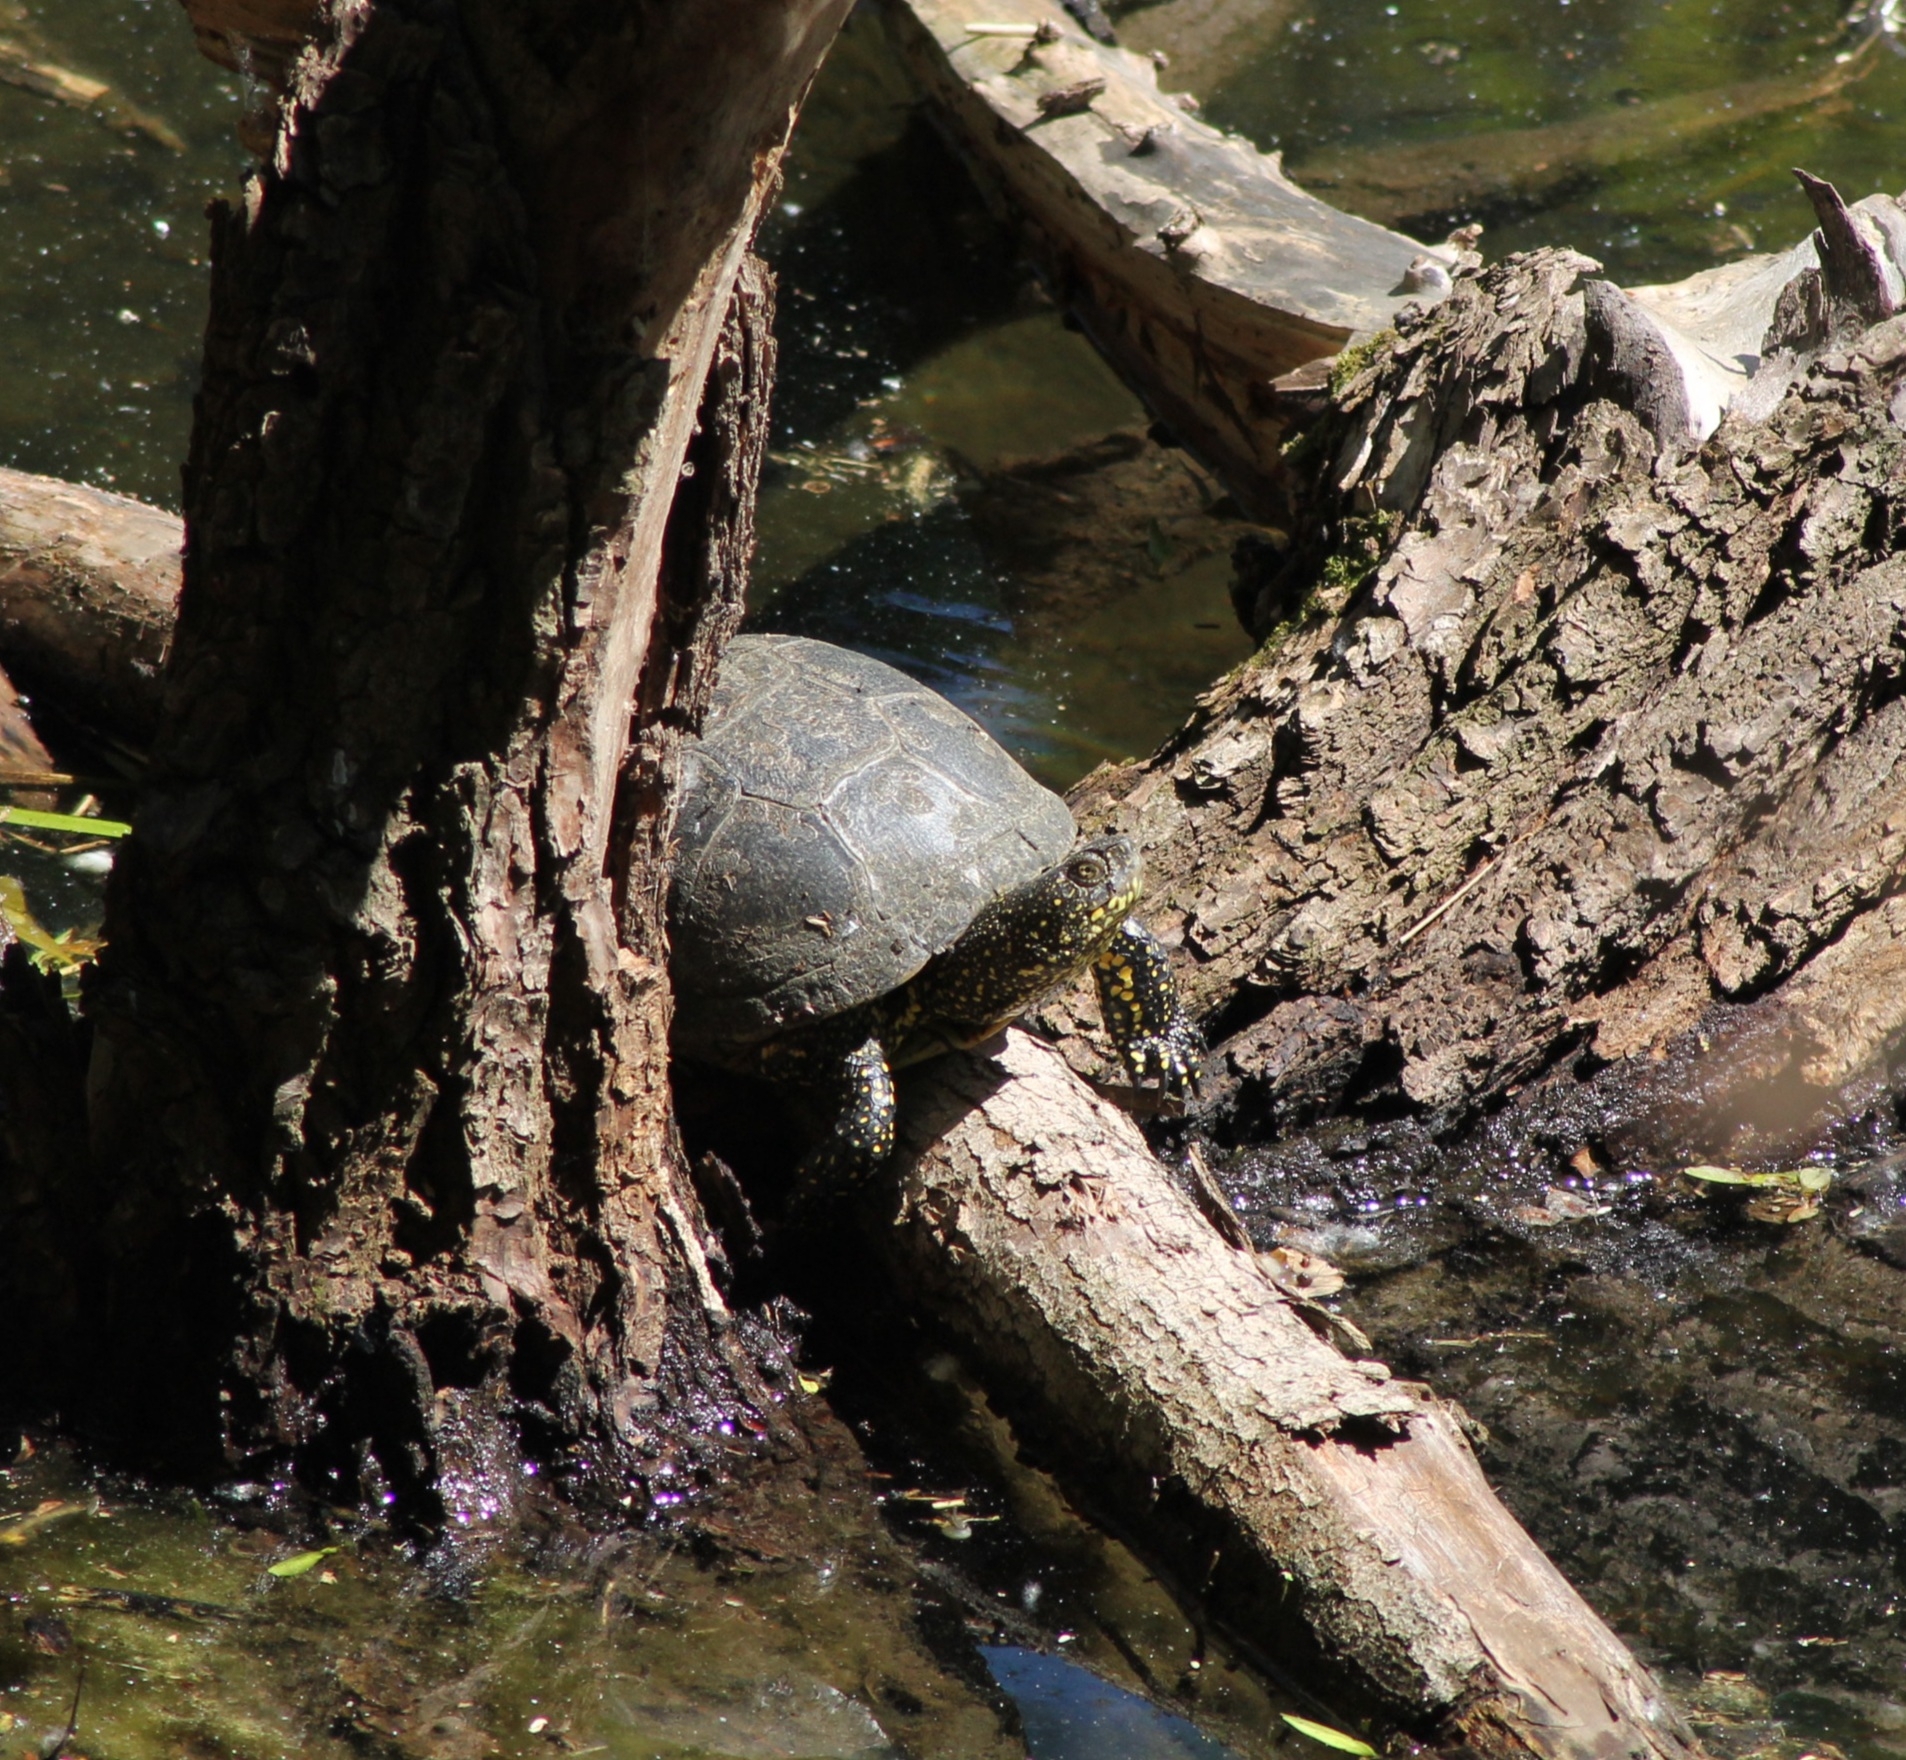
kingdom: Animalia
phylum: Chordata
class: Testudines
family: Emydidae
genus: Emys
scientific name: Emys orbicularis
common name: European pond turtle
